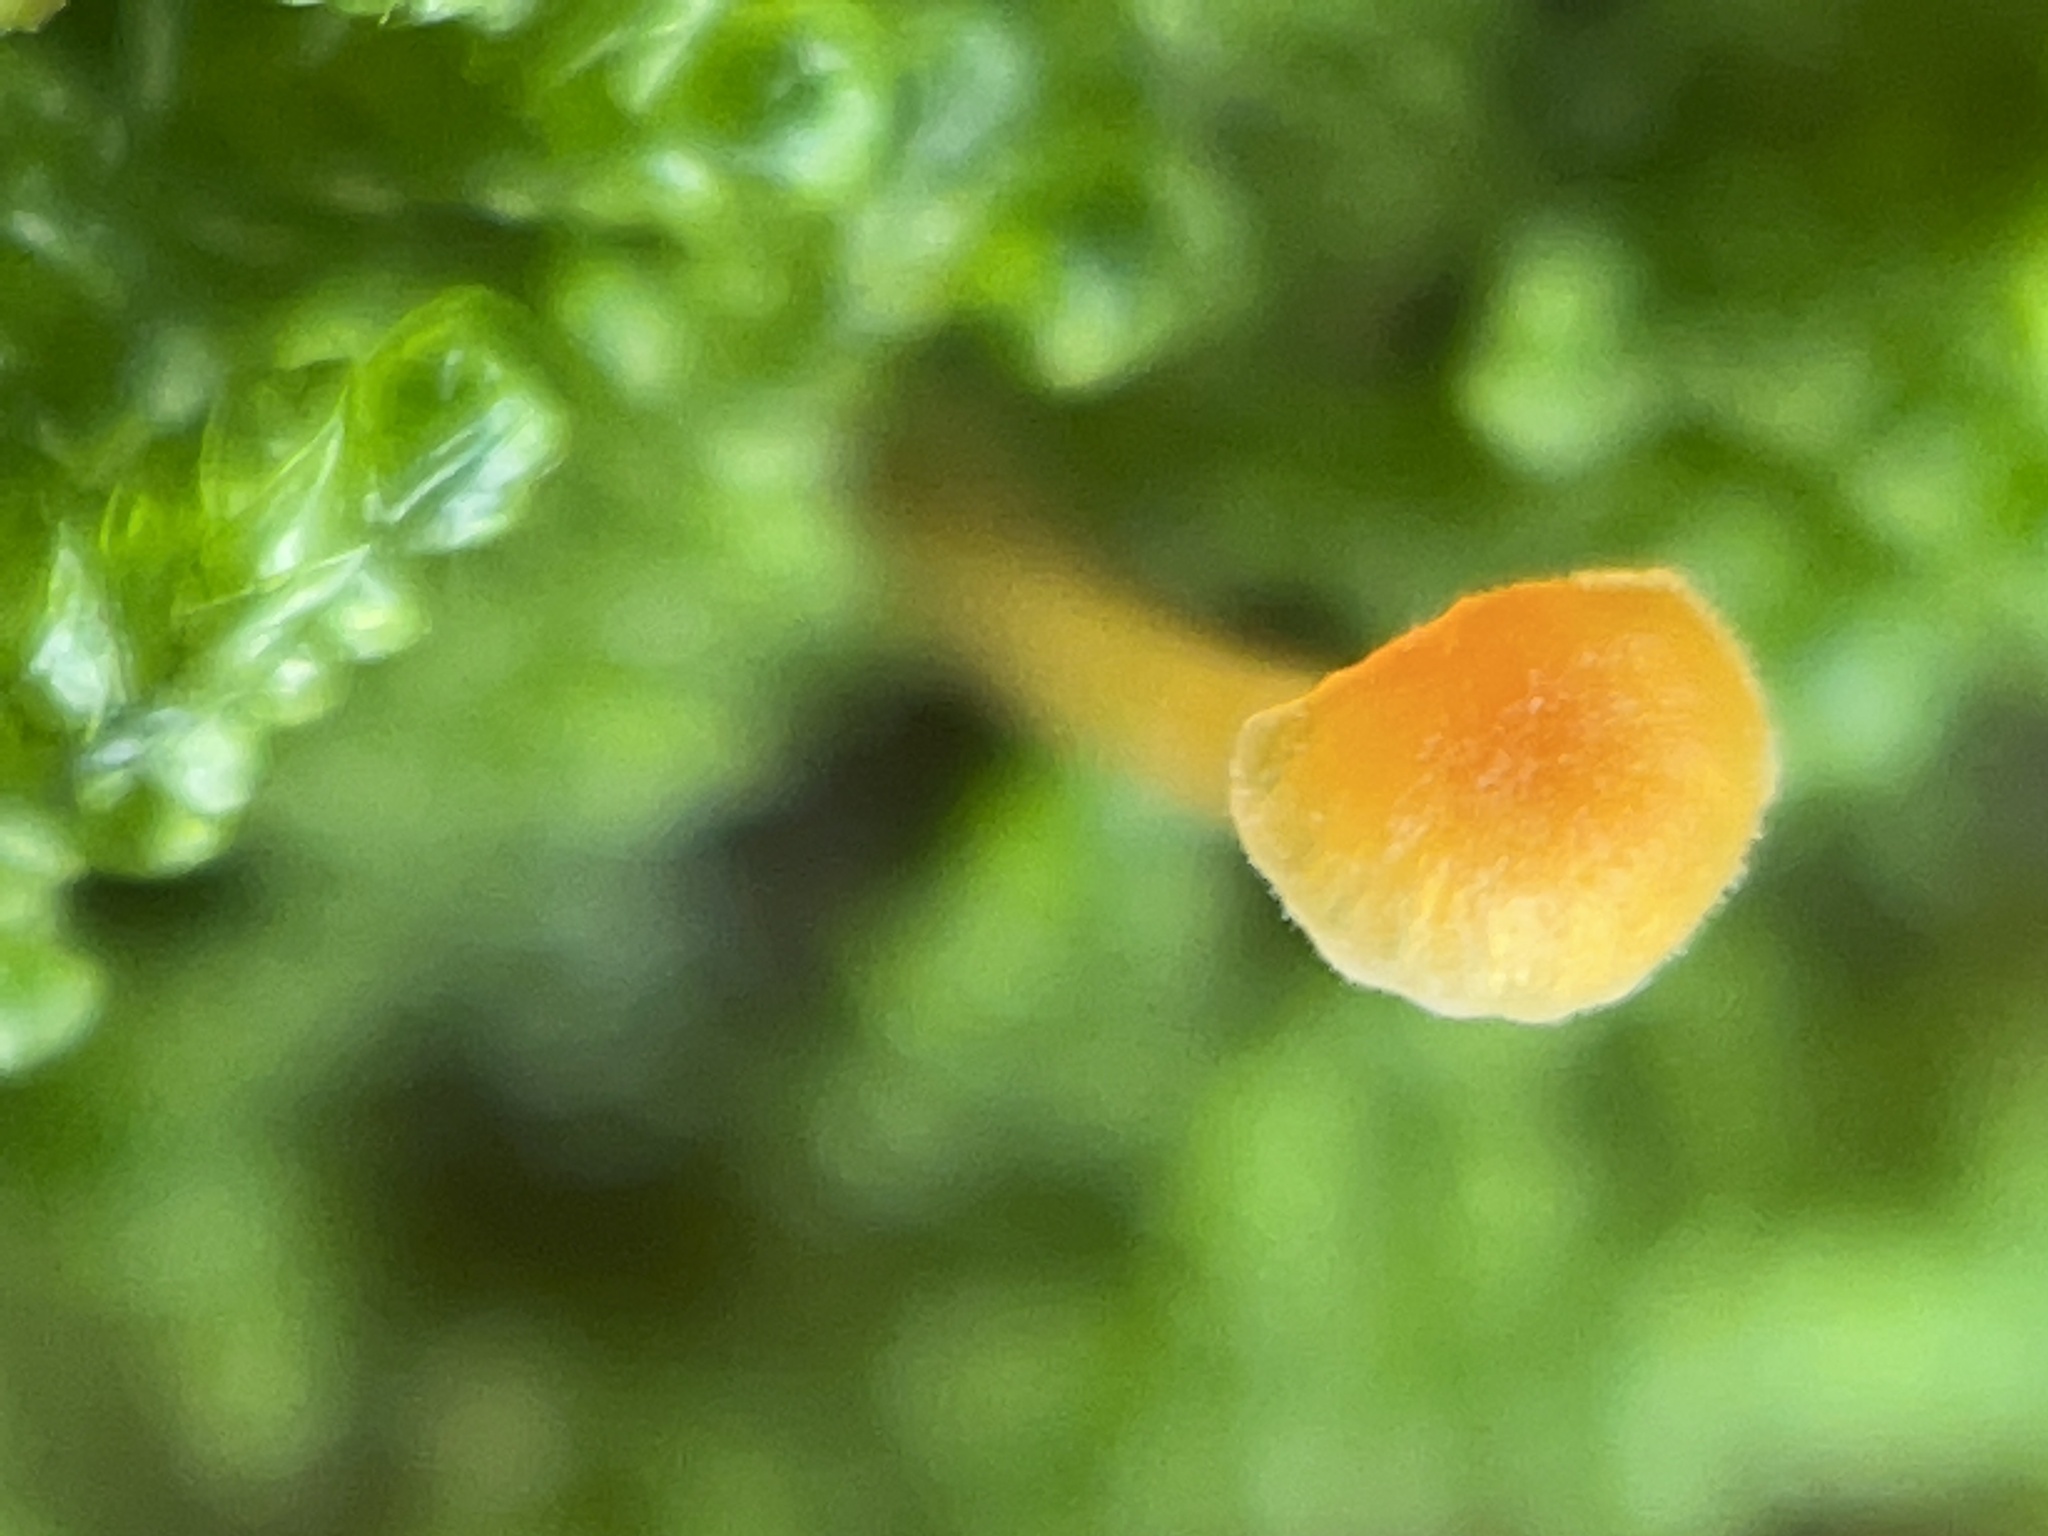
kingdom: Fungi
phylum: Basidiomycota
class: Agaricomycetes
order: Hymenochaetales
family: Rickenellaceae
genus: Rickenella
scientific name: Rickenella fibula
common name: Orange mosscap
